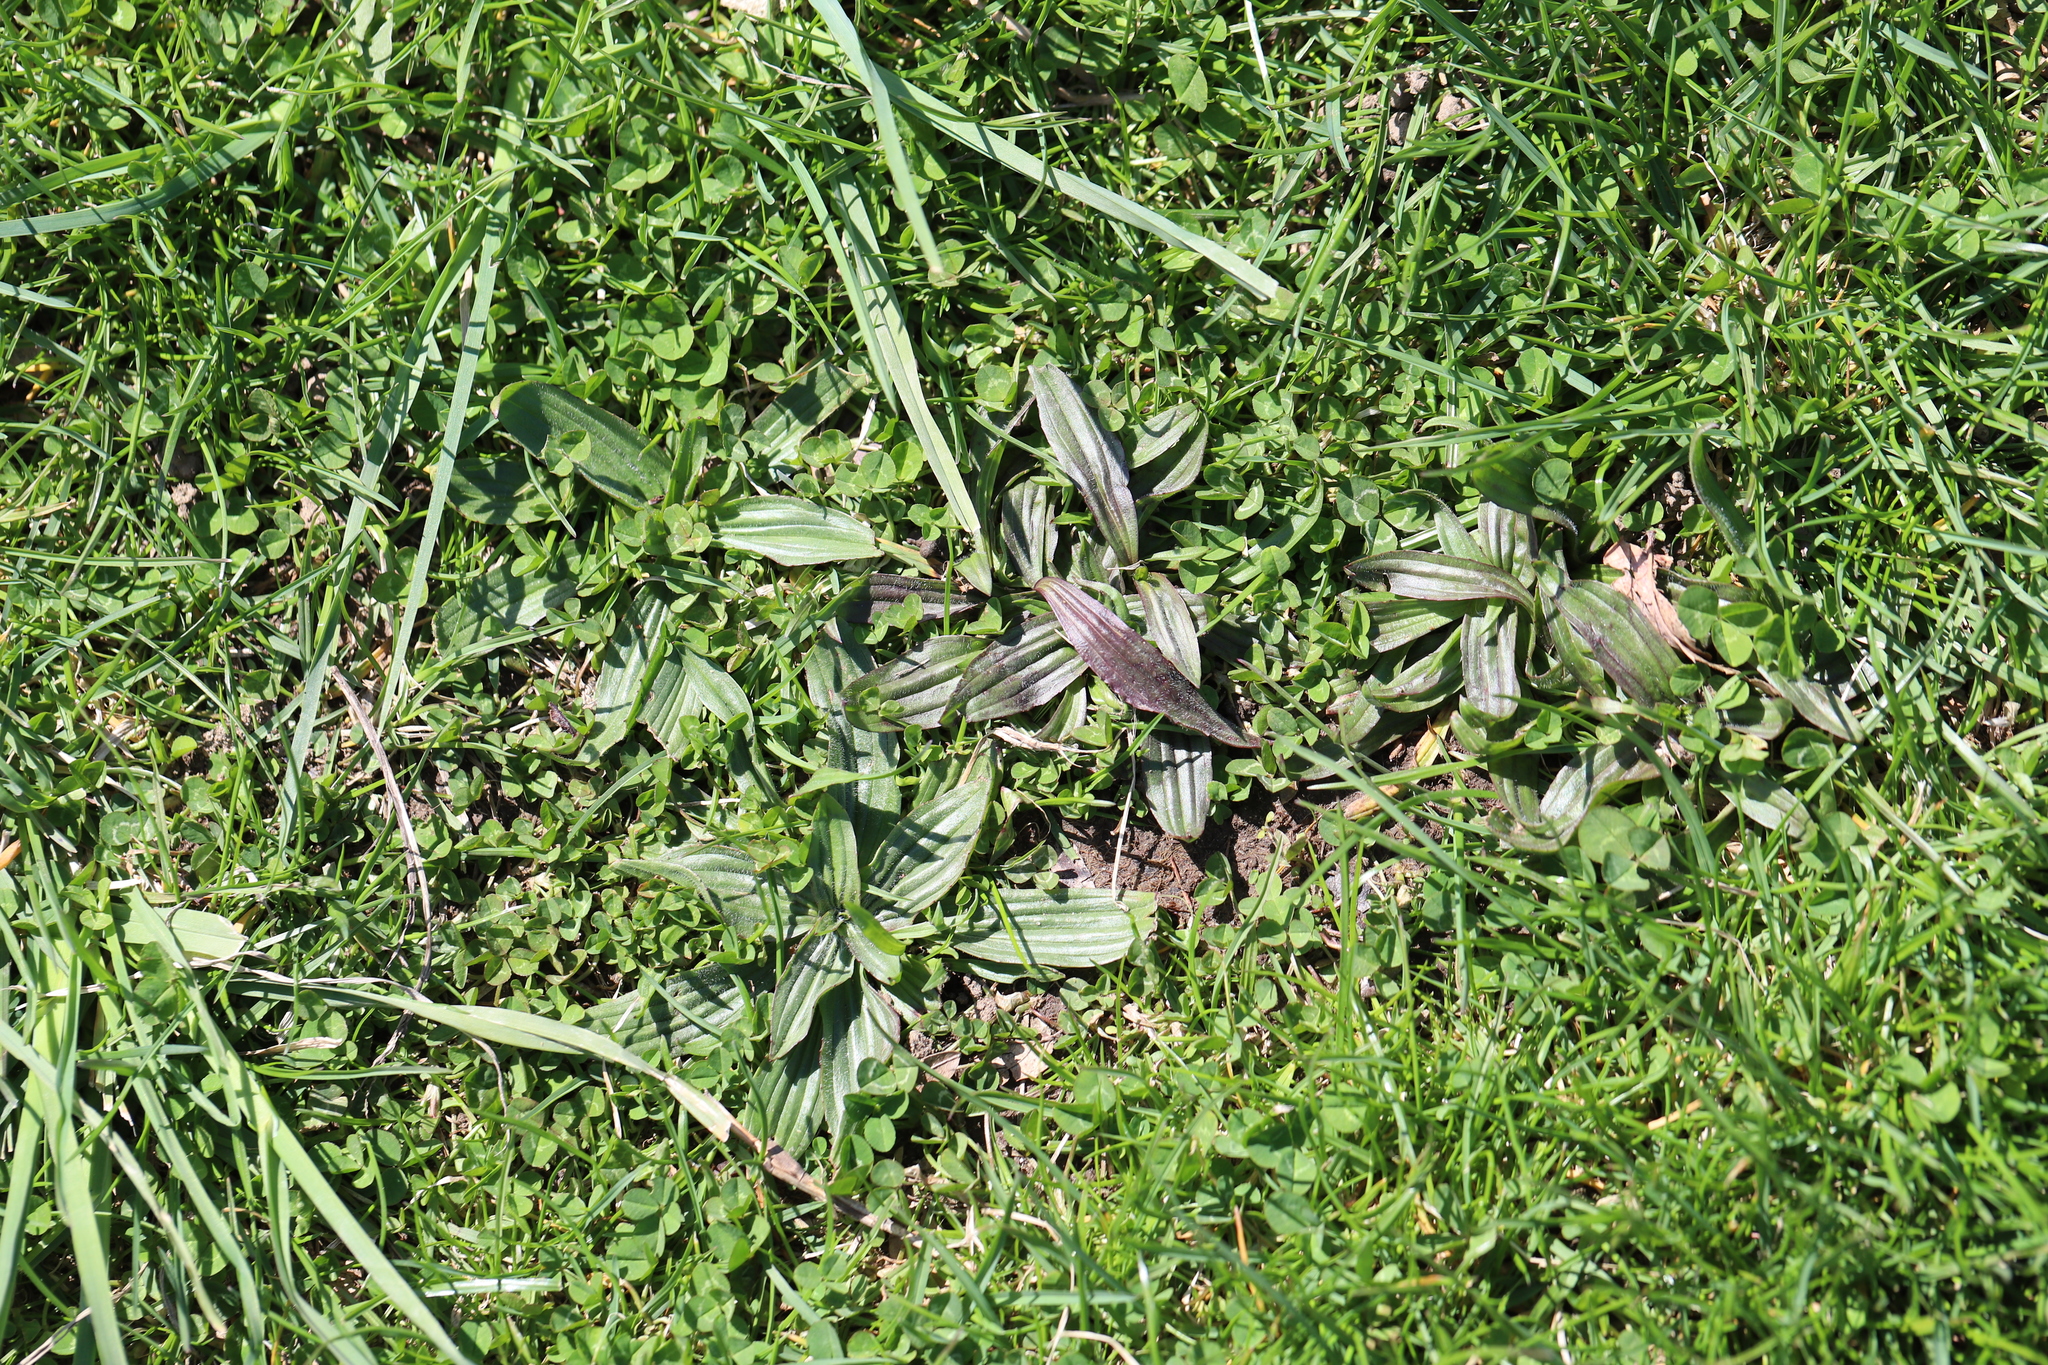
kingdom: Plantae
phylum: Tracheophyta
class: Magnoliopsida
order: Lamiales
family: Plantaginaceae
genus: Plantago
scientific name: Plantago lanceolata
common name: Ribwort plantain
